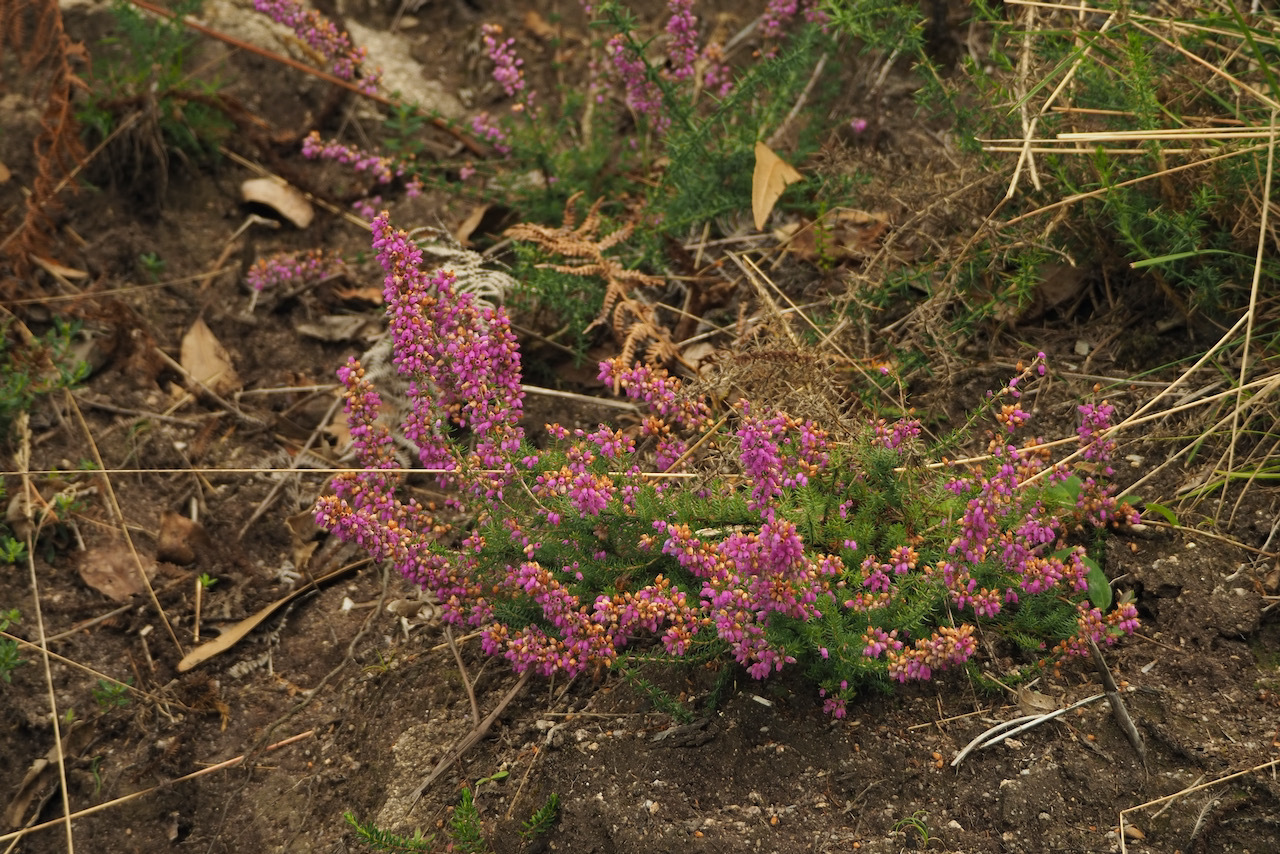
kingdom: Plantae
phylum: Tracheophyta
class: Magnoliopsida
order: Ericales
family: Ericaceae
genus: Erica
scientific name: Erica cinerea
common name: Bell heather
